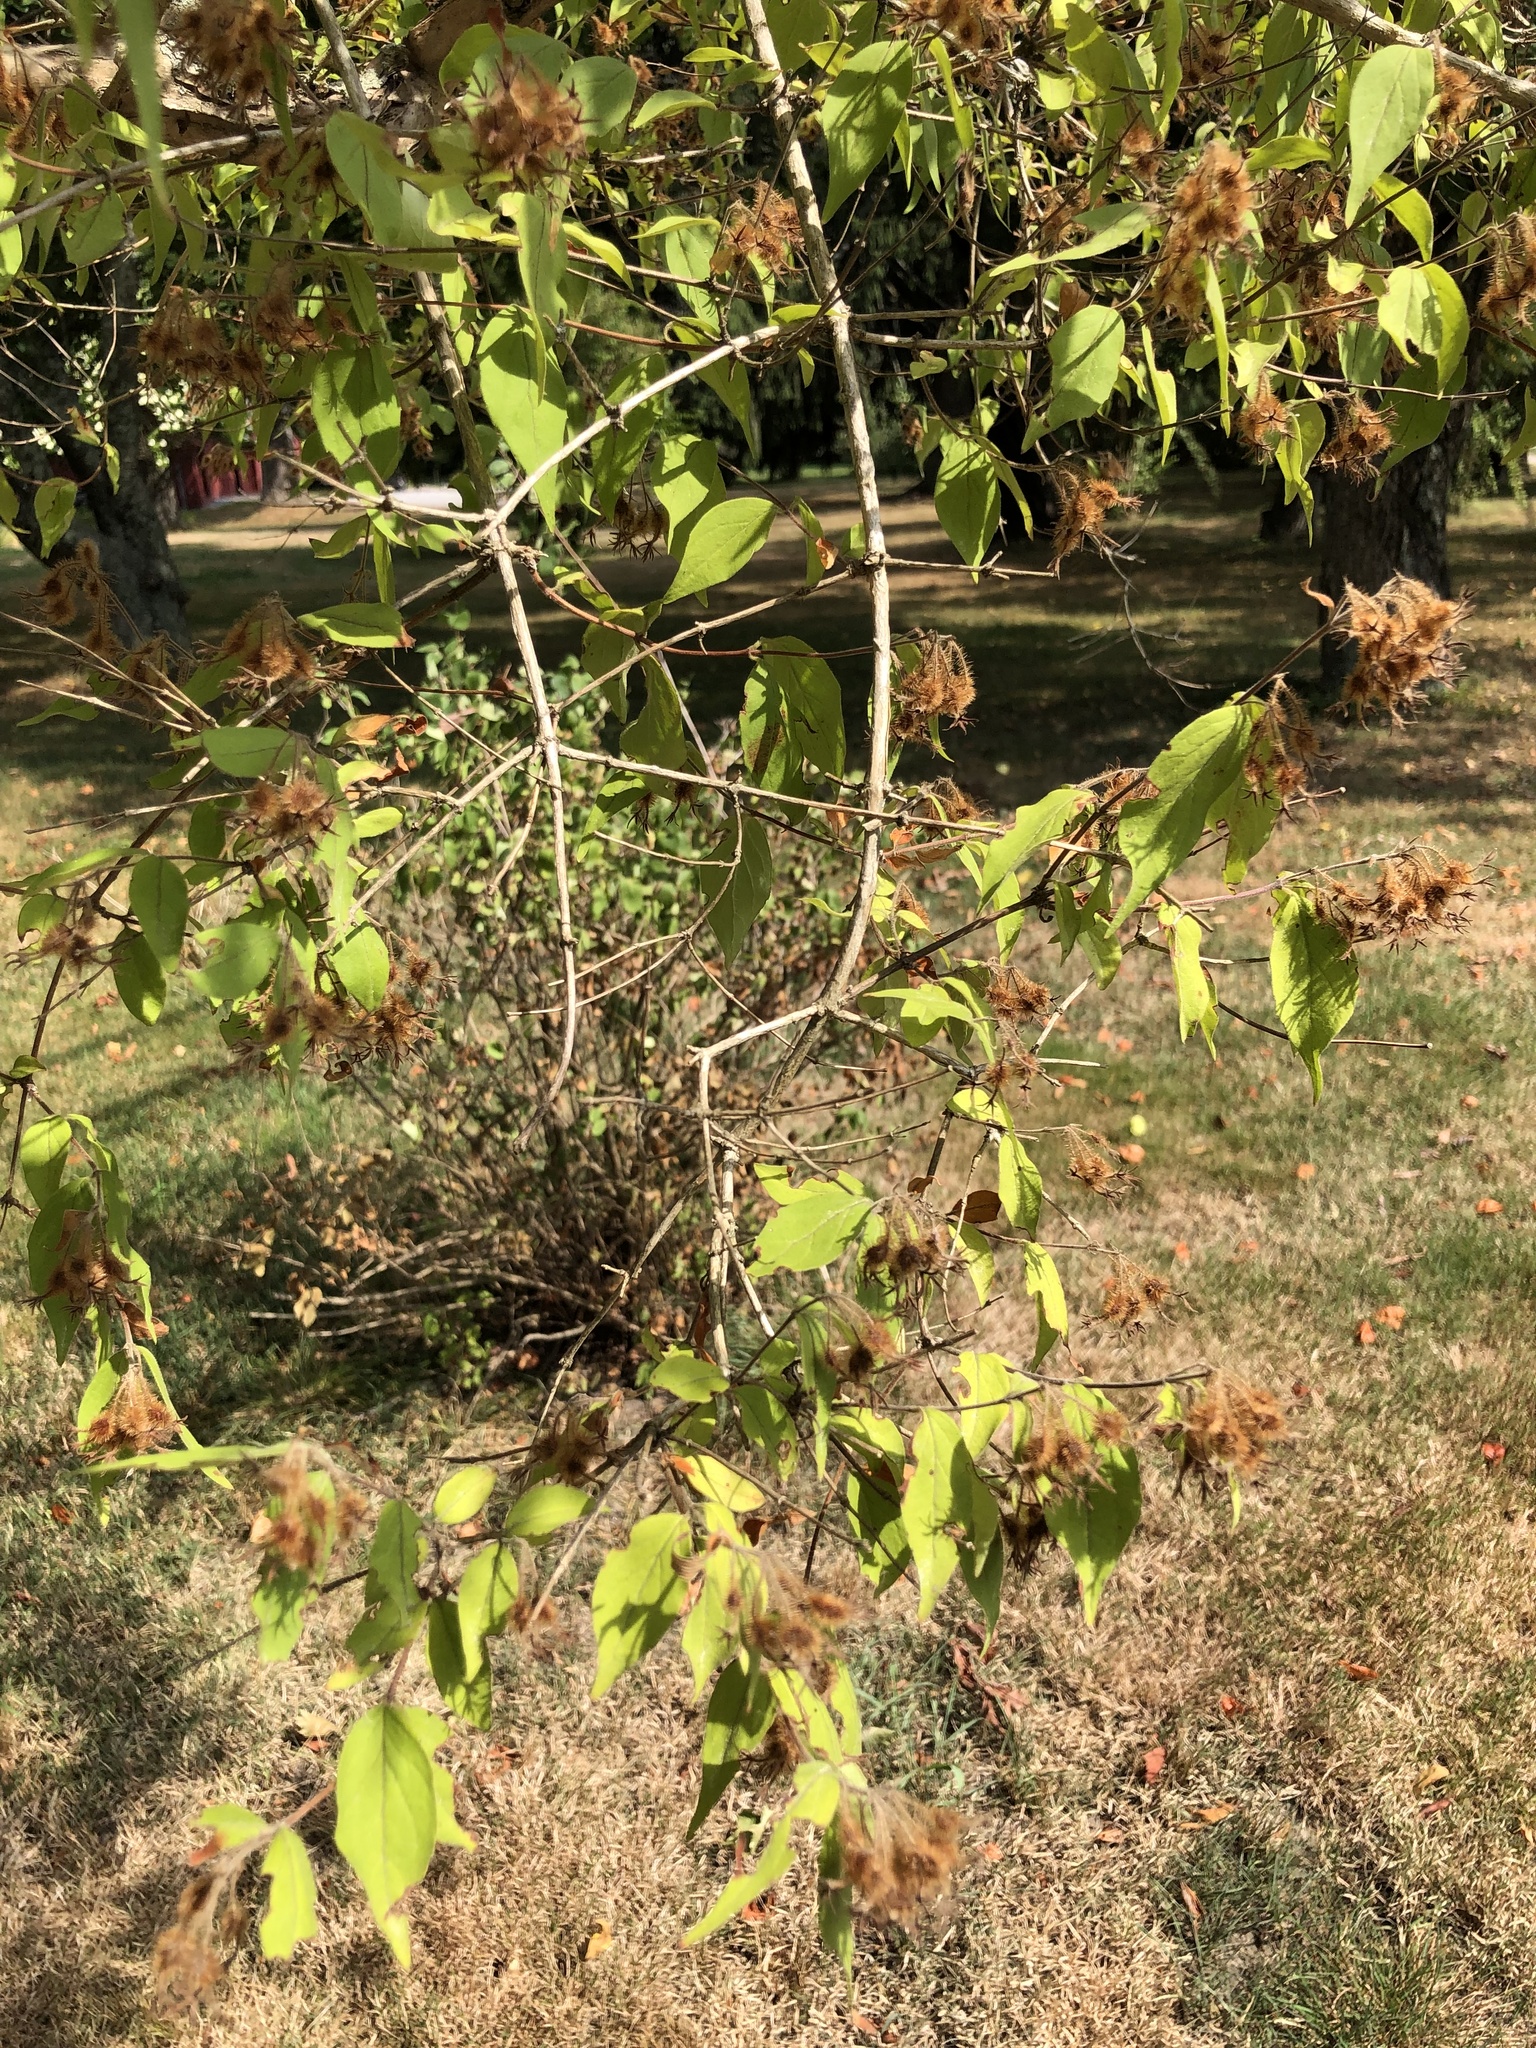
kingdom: Plantae
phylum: Tracheophyta
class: Magnoliopsida
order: Dipsacales
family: Caprifoliaceae
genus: Kolkwitzia
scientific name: Kolkwitzia amabilis
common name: Beautybush
